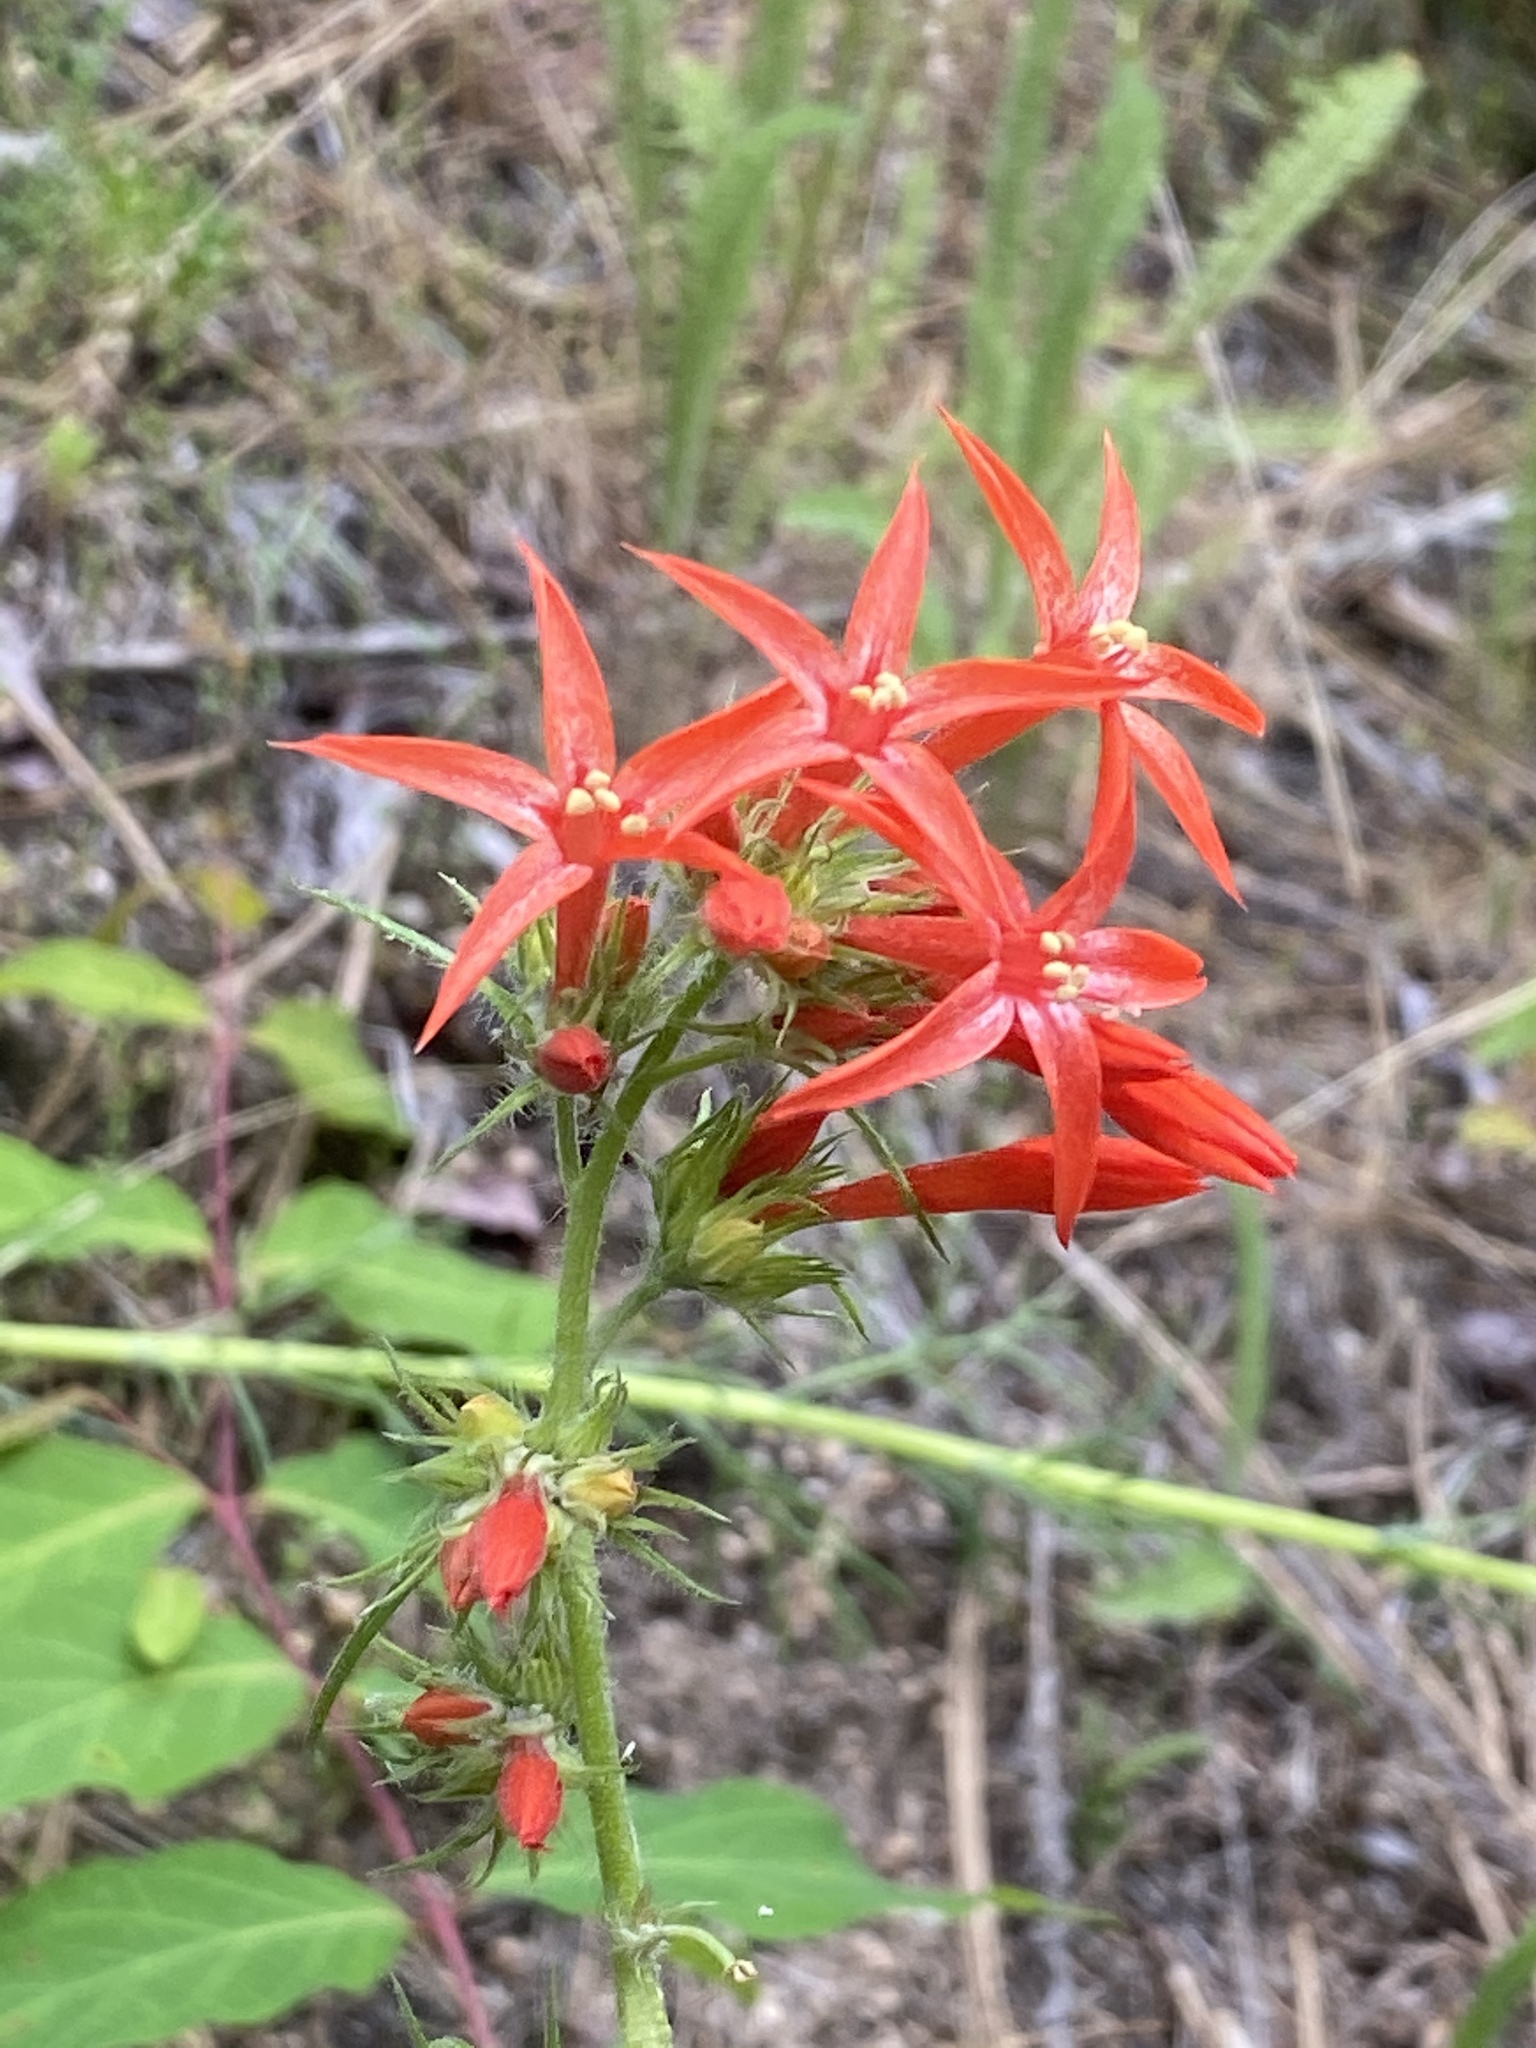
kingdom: Plantae
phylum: Tracheophyta
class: Magnoliopsida
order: Ericales
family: Polemoniaceae
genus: Ipomopsis
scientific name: Ipomopsis aggregata
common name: Scarlet gilia
